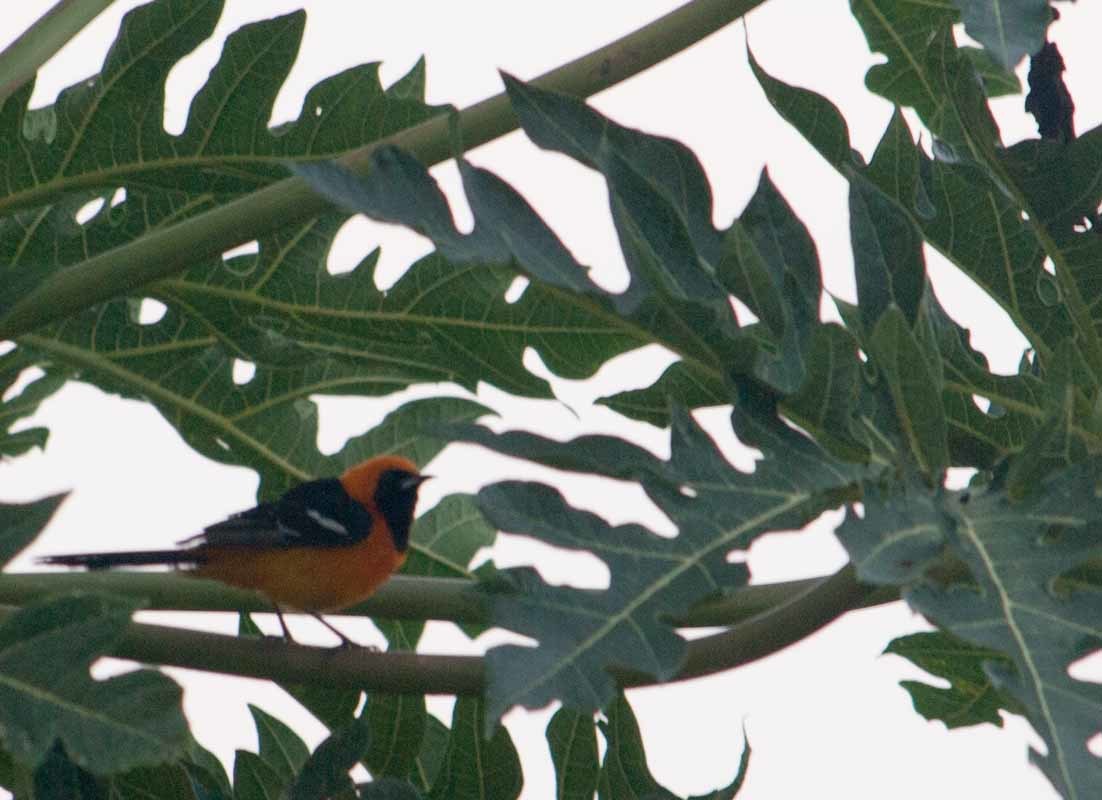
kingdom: Animalia
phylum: Chordata
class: Aves
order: Passeriformes
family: Icteridae
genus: Icterus
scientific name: Icterus cucullatus
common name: Hooded oriole
